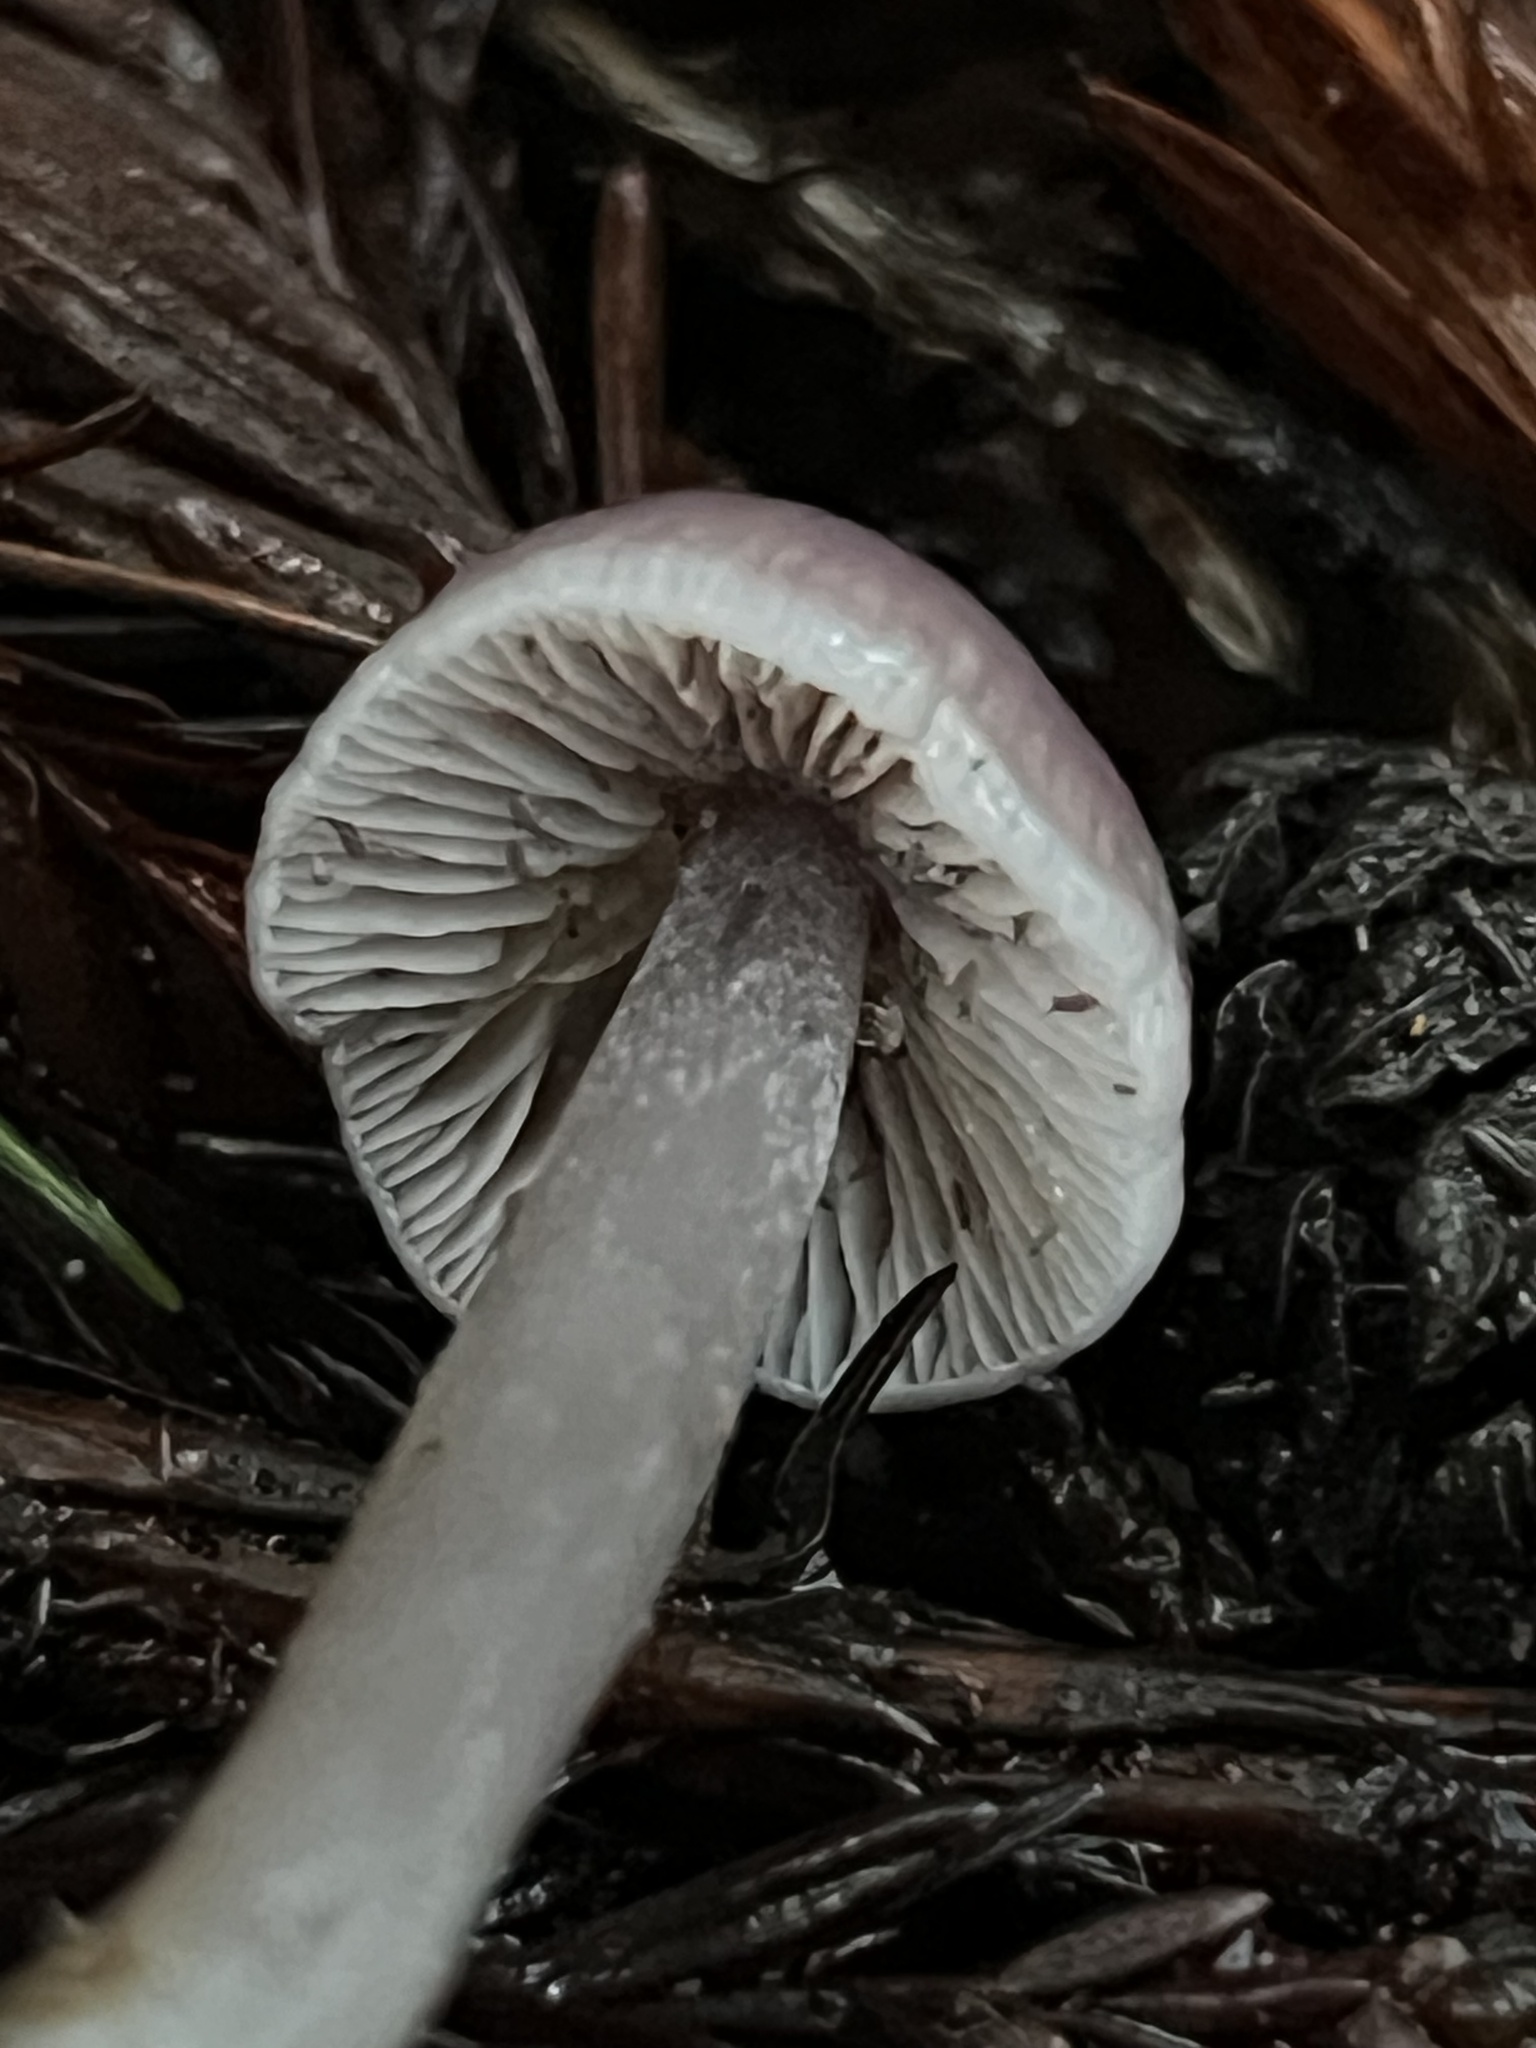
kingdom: Fungi
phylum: Basidiomycota
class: Agaricomycetes
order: Agaricales
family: Mycenaceae
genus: Mycena
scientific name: Mycena pura
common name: Lilac bonnet
